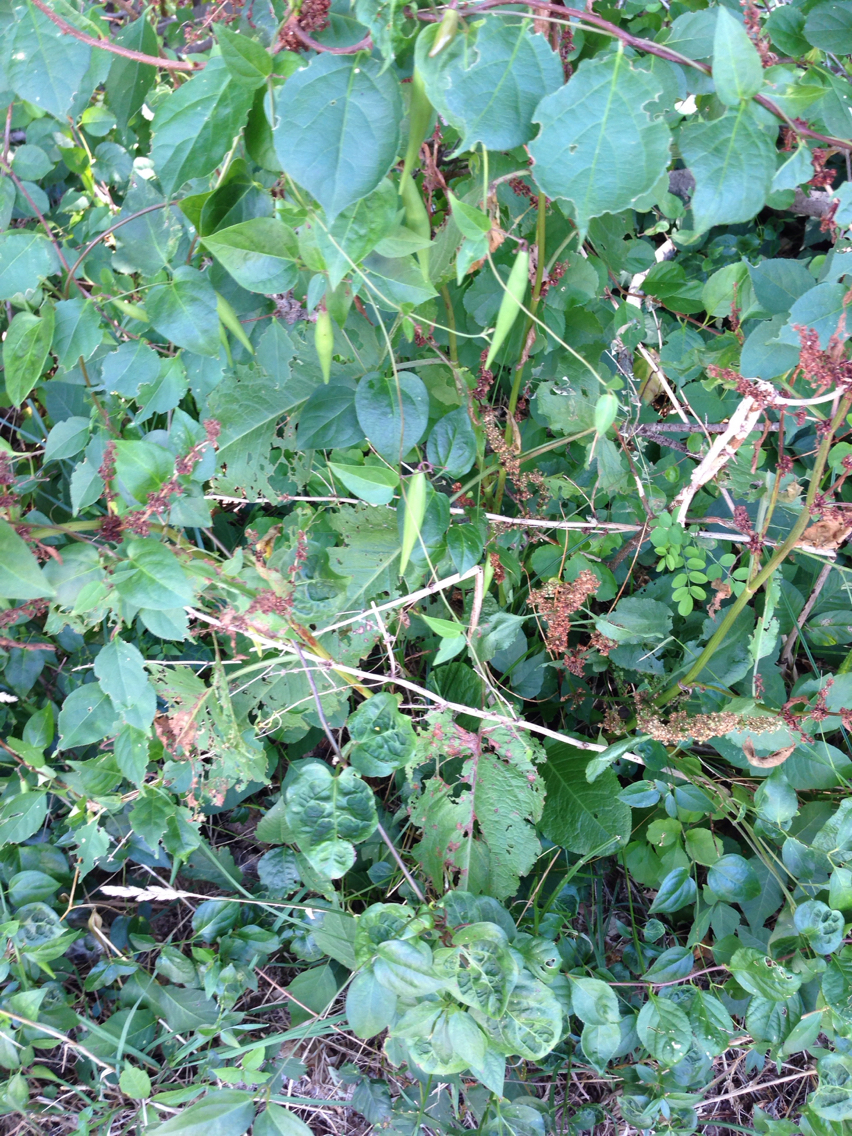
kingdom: Plantae
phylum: Tracheophyta
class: Magnoliopsida
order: Gentianales
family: Apocynaceae
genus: Vincetoxicum
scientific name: Vincetoxicum
